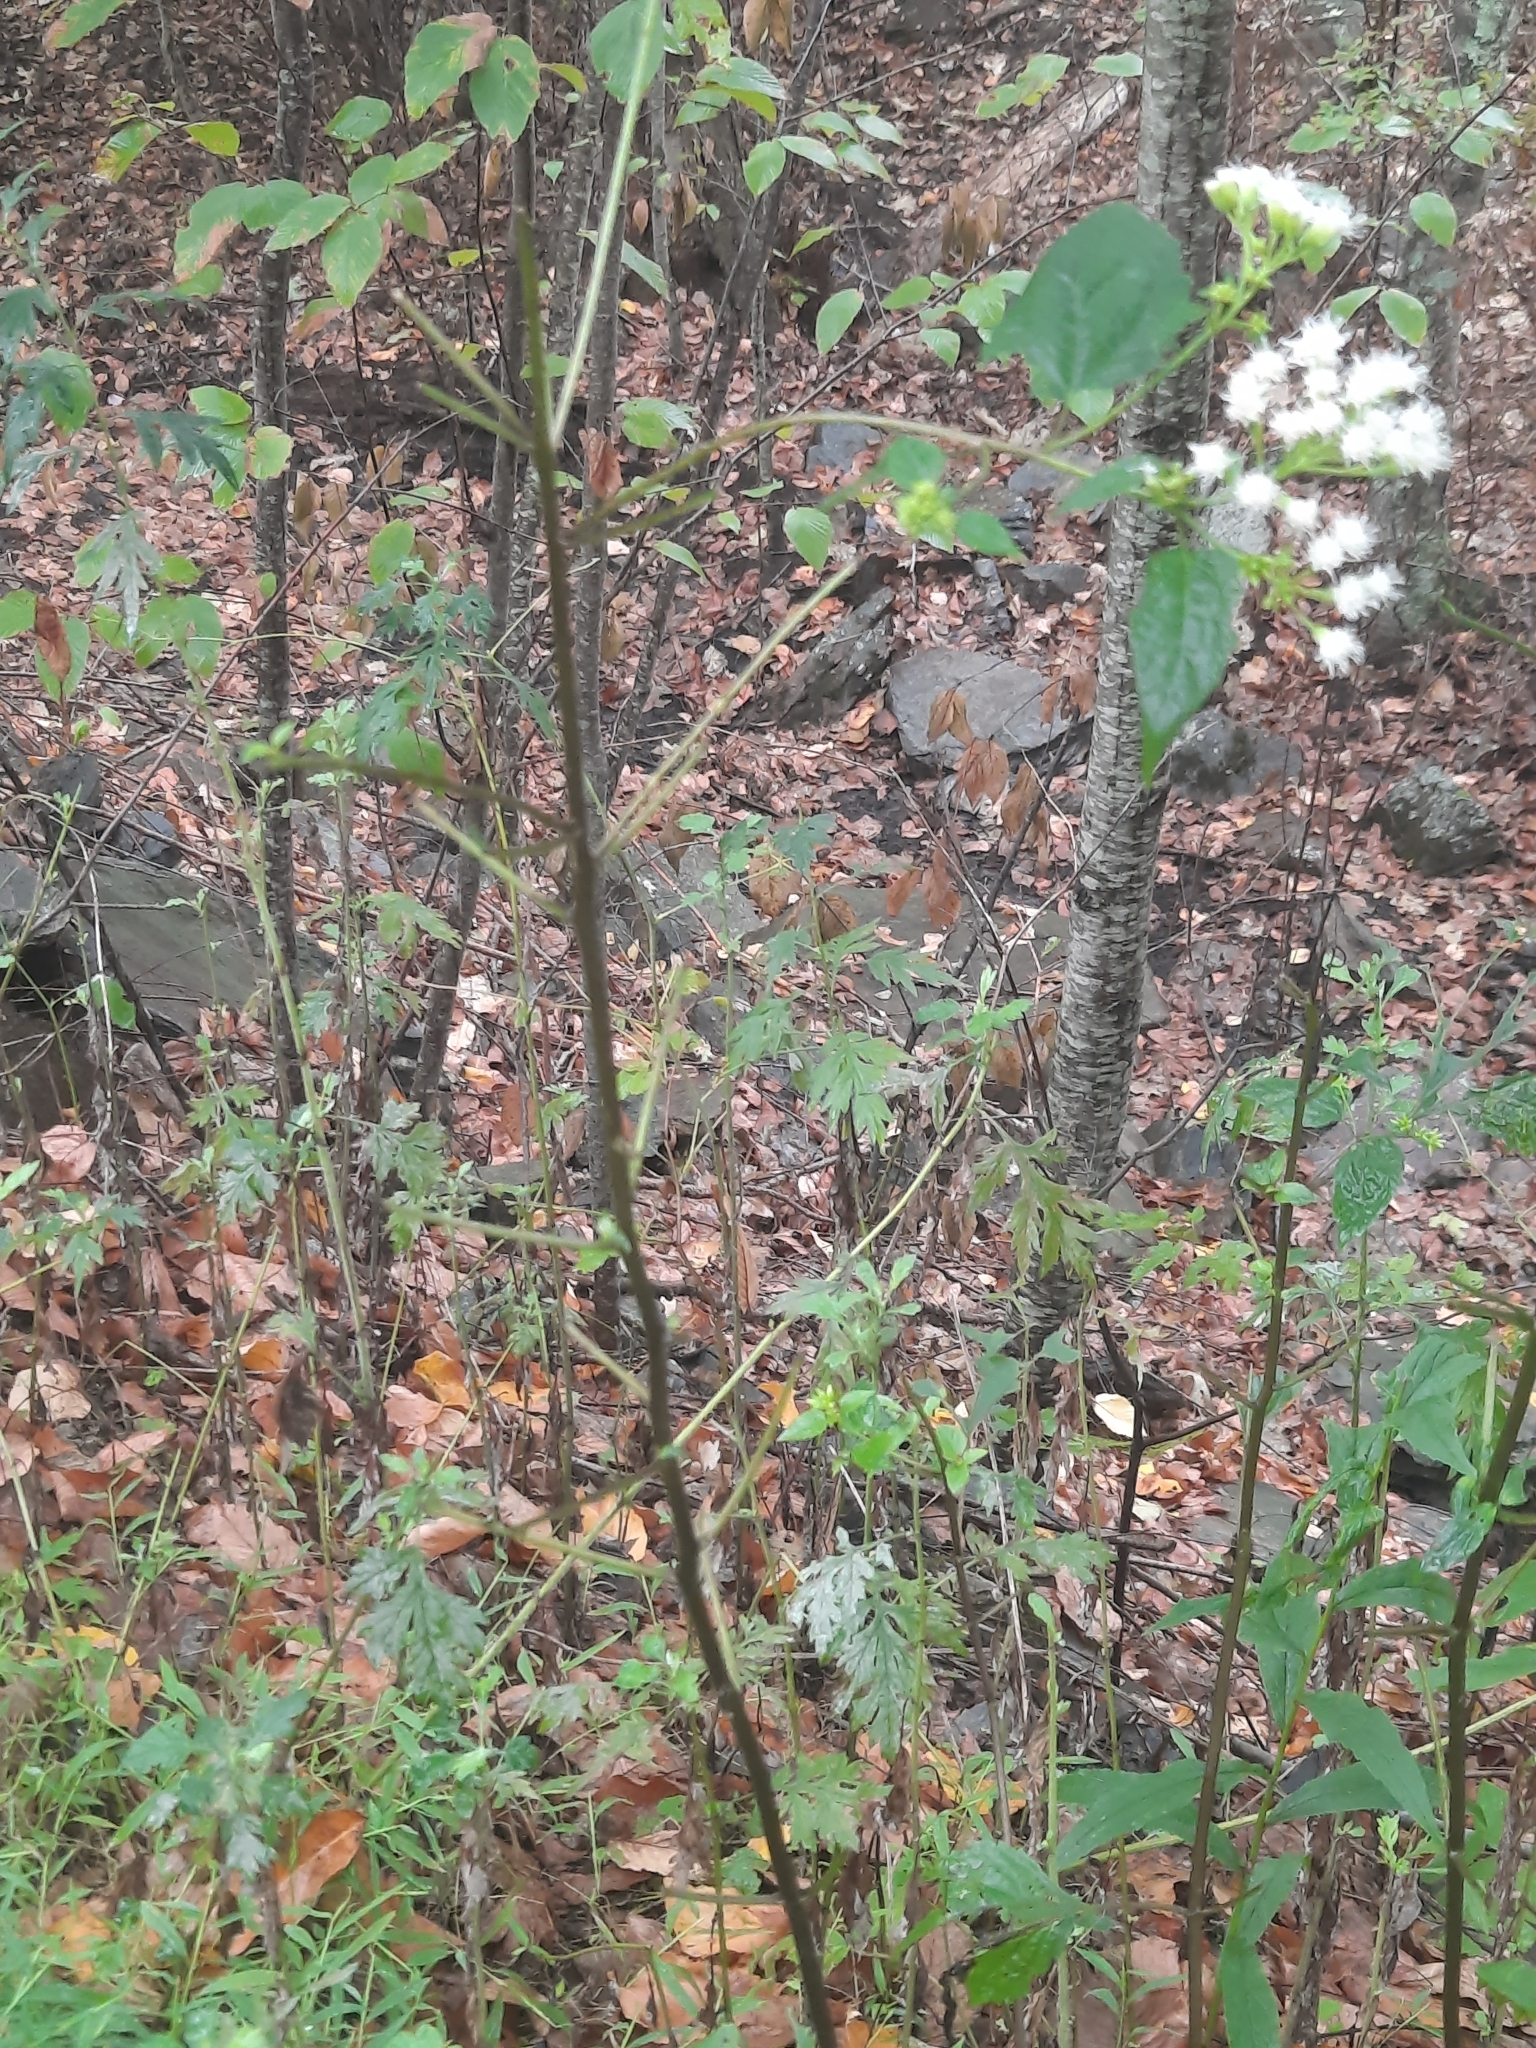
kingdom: Plantae
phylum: Tracheophyta
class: Magnoliopsida
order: Asterales
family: Asteraceae
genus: Ageratina
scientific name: Ageratina altissima
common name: White snakeroot
